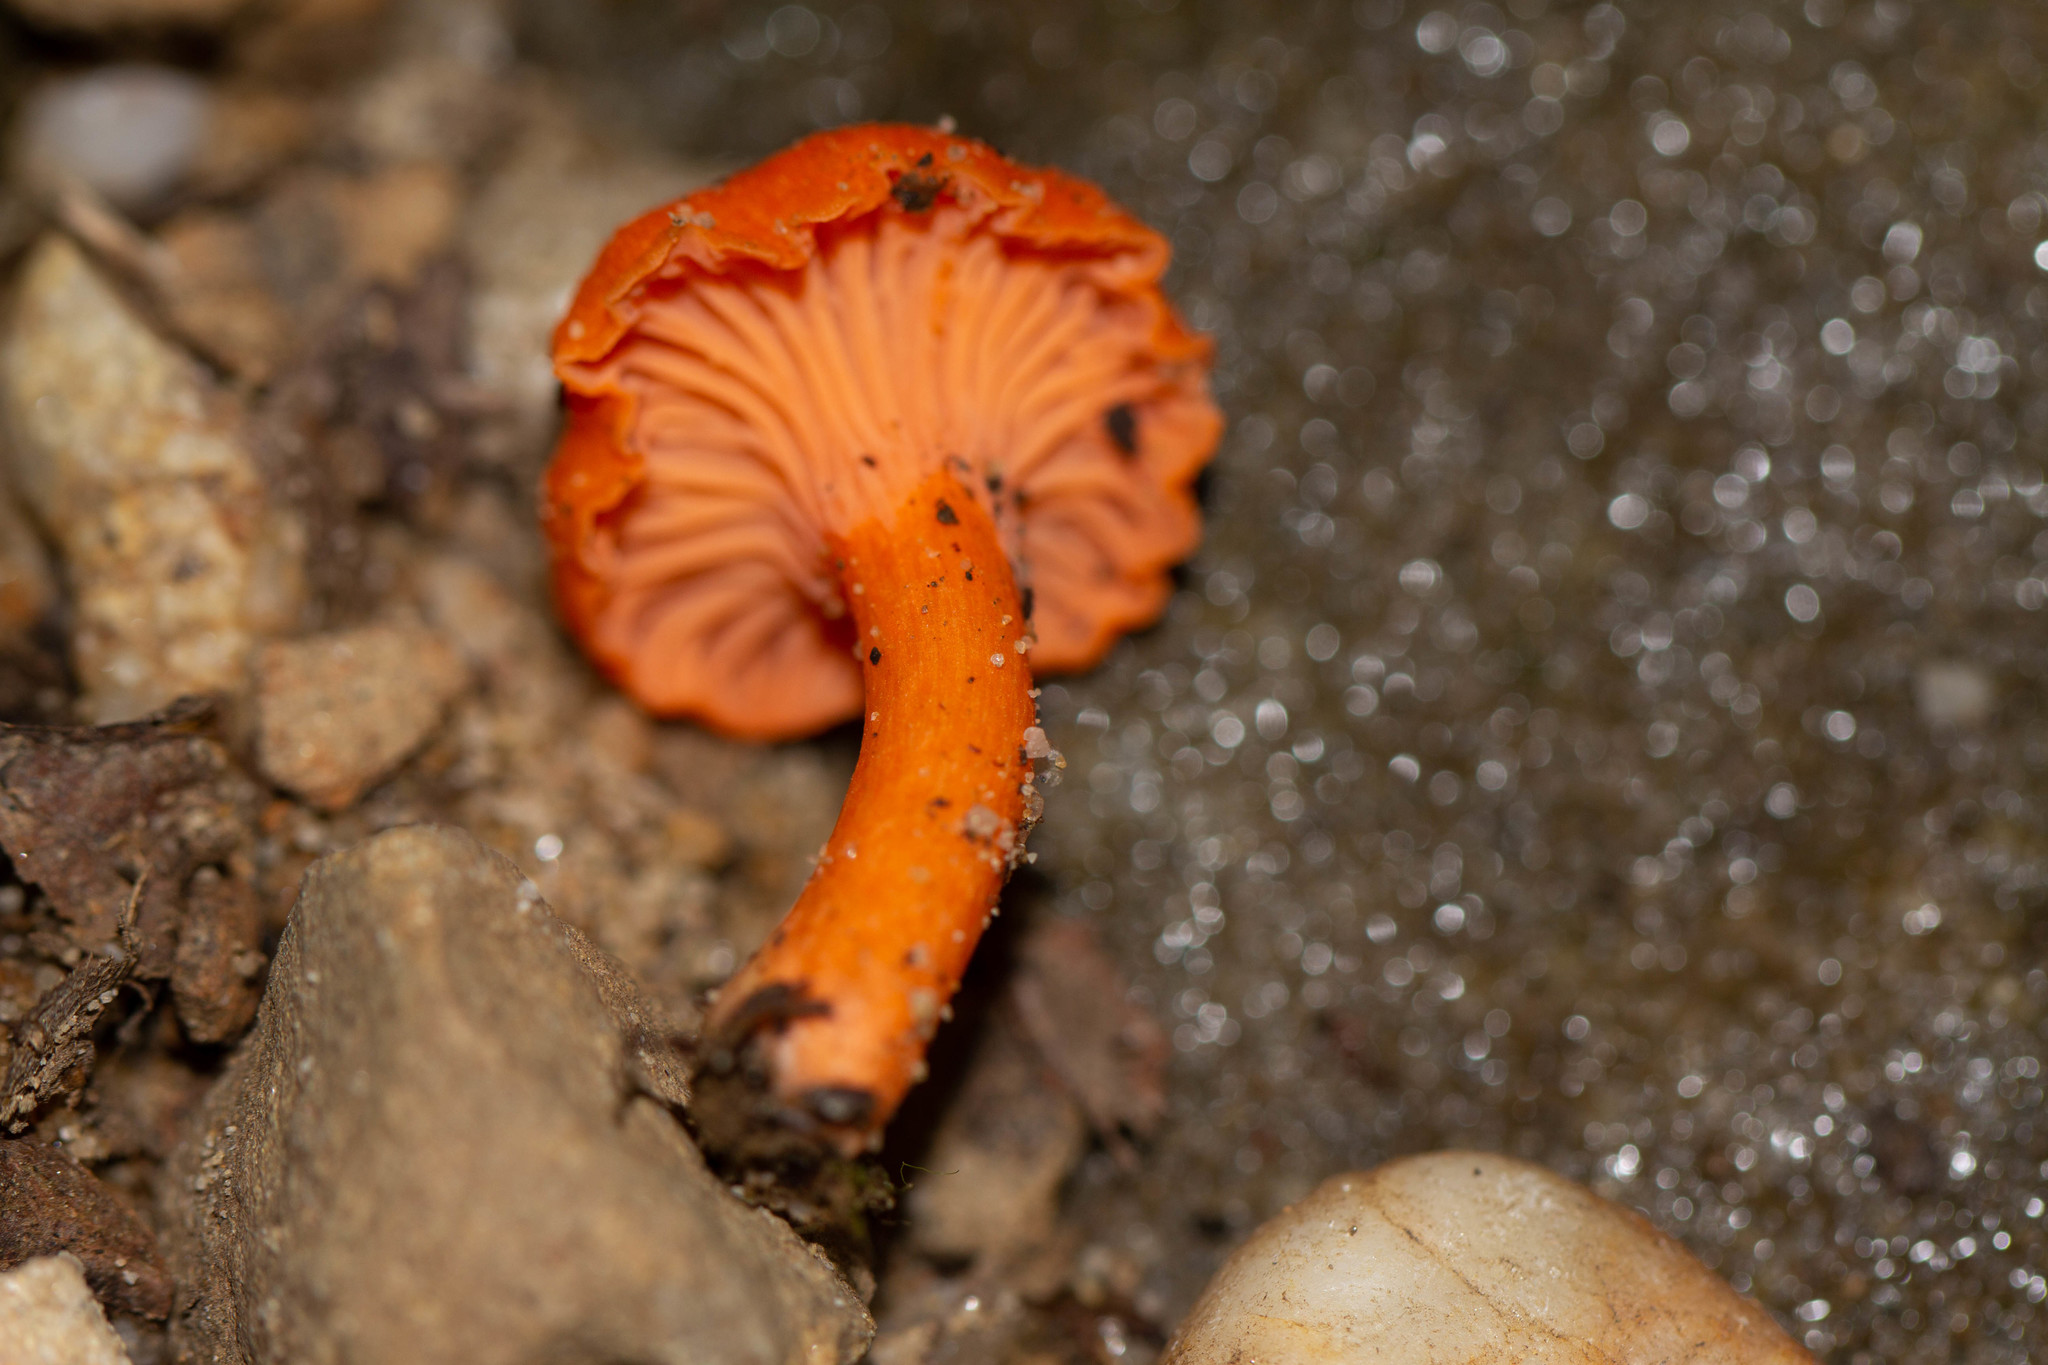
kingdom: Fungi
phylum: Basidiomycota
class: Agaricomycetes
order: Cantharellales
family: Hydnaceae
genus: Cantharellus
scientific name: Cantharellus cinnabarinus
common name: Cinnabar chanterelle
